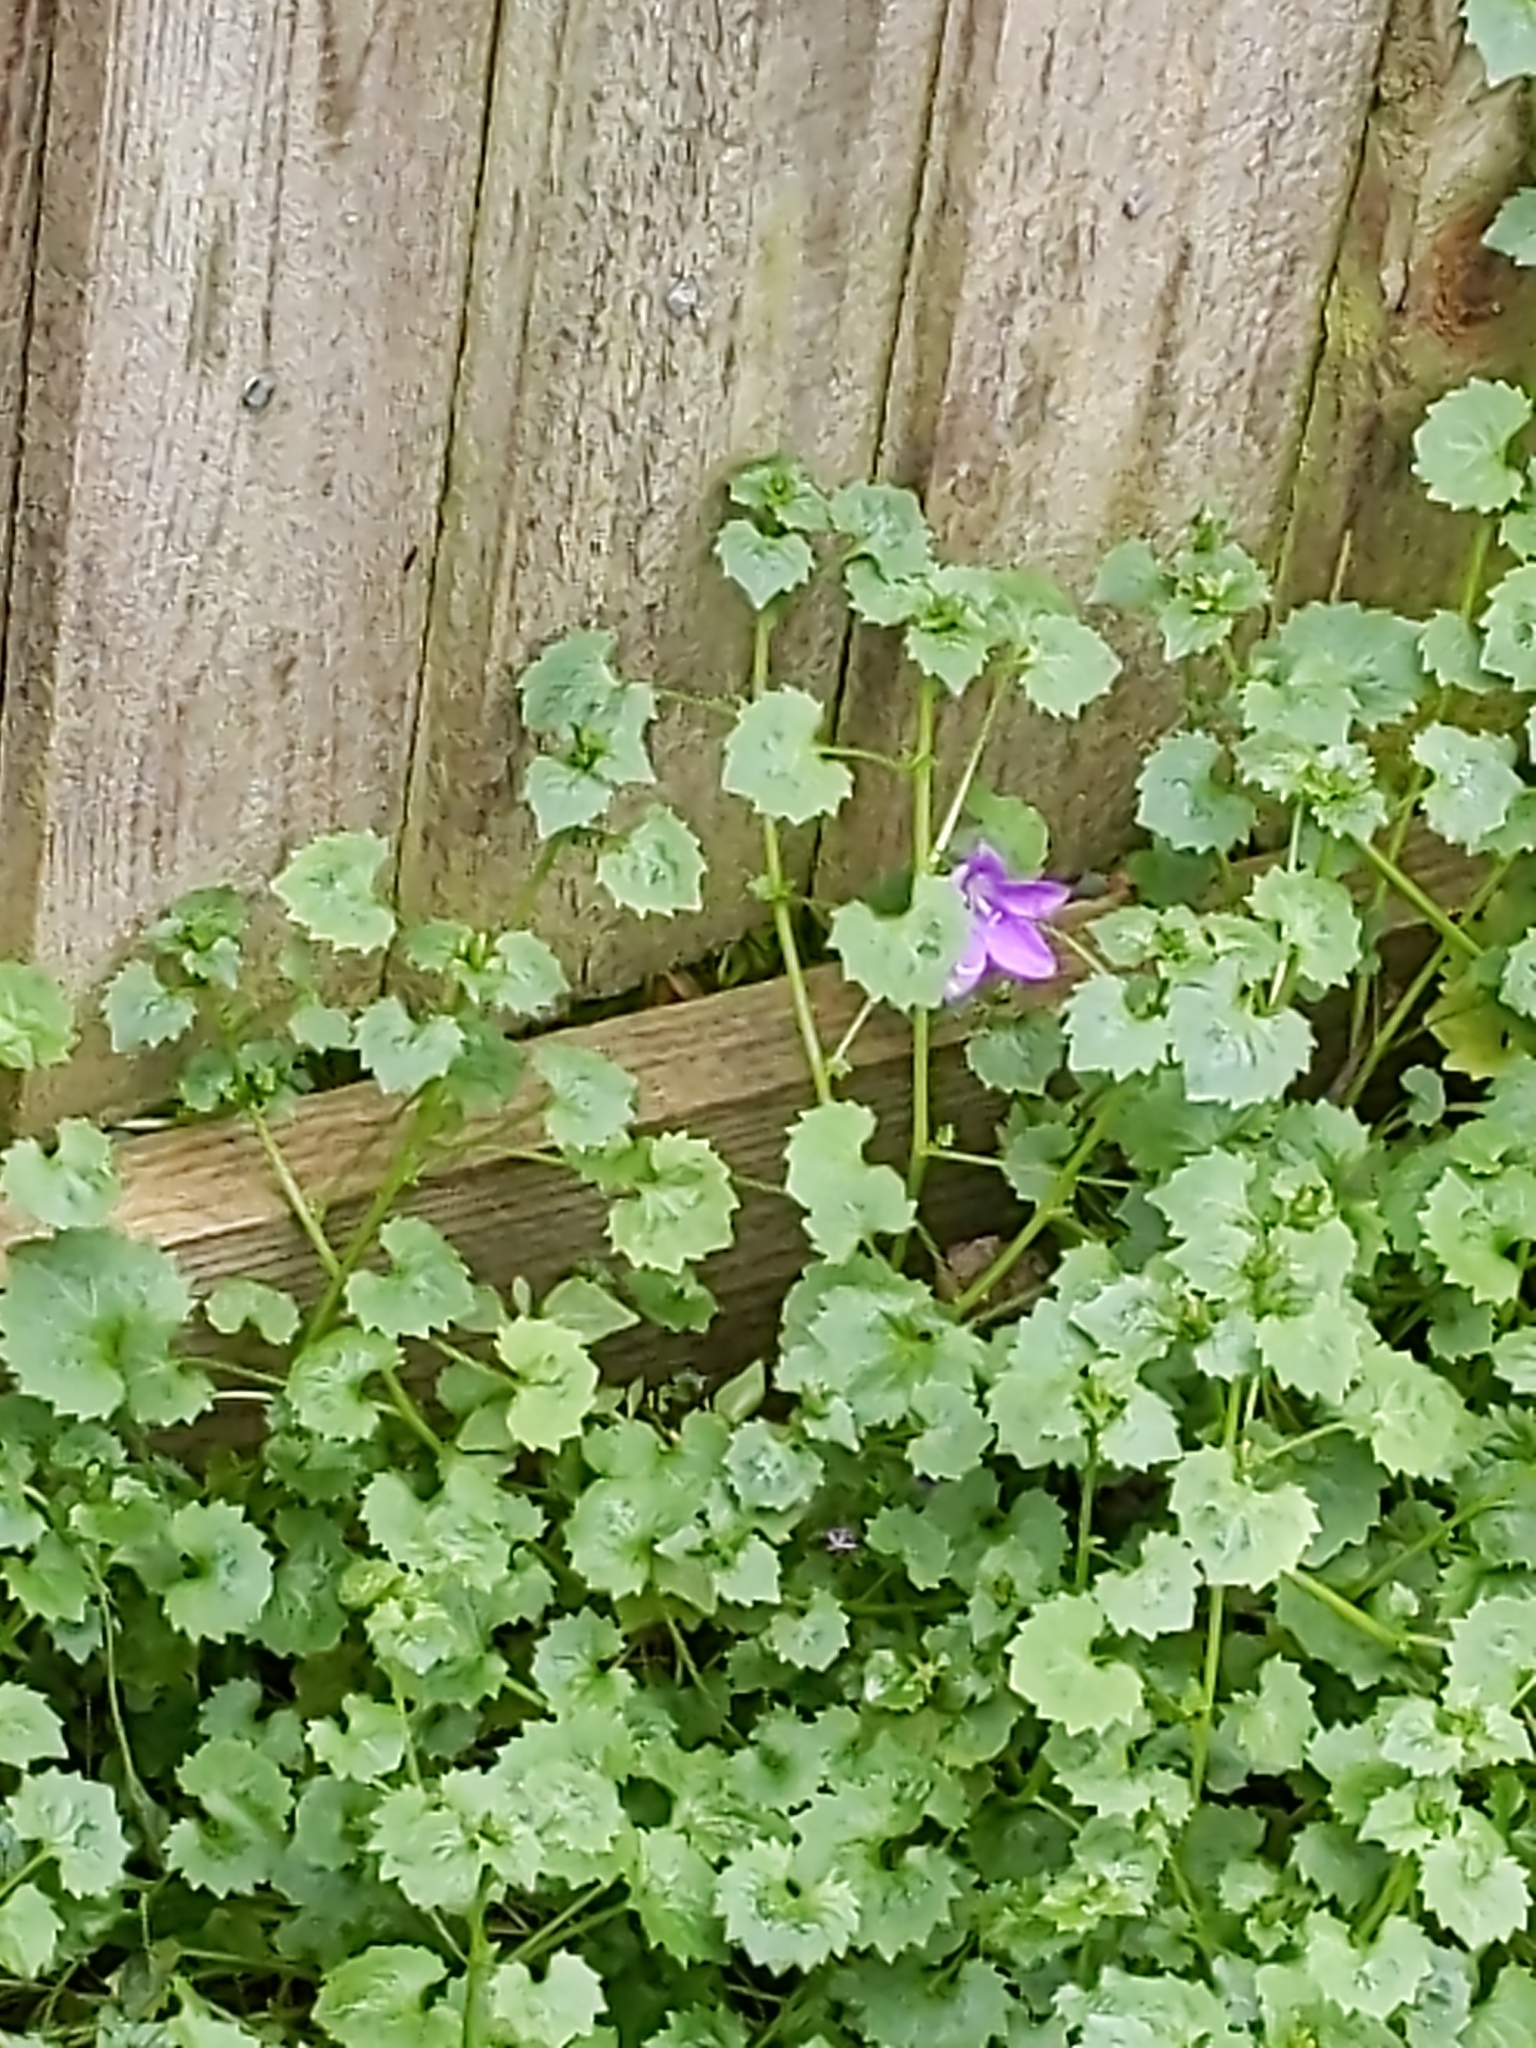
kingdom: Plantae
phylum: Tracheophyta
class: Magnoliopsida
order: Asterales
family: Campanulaceae
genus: Campanula
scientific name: Campanula portenschlagiana
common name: Adria bellflower
